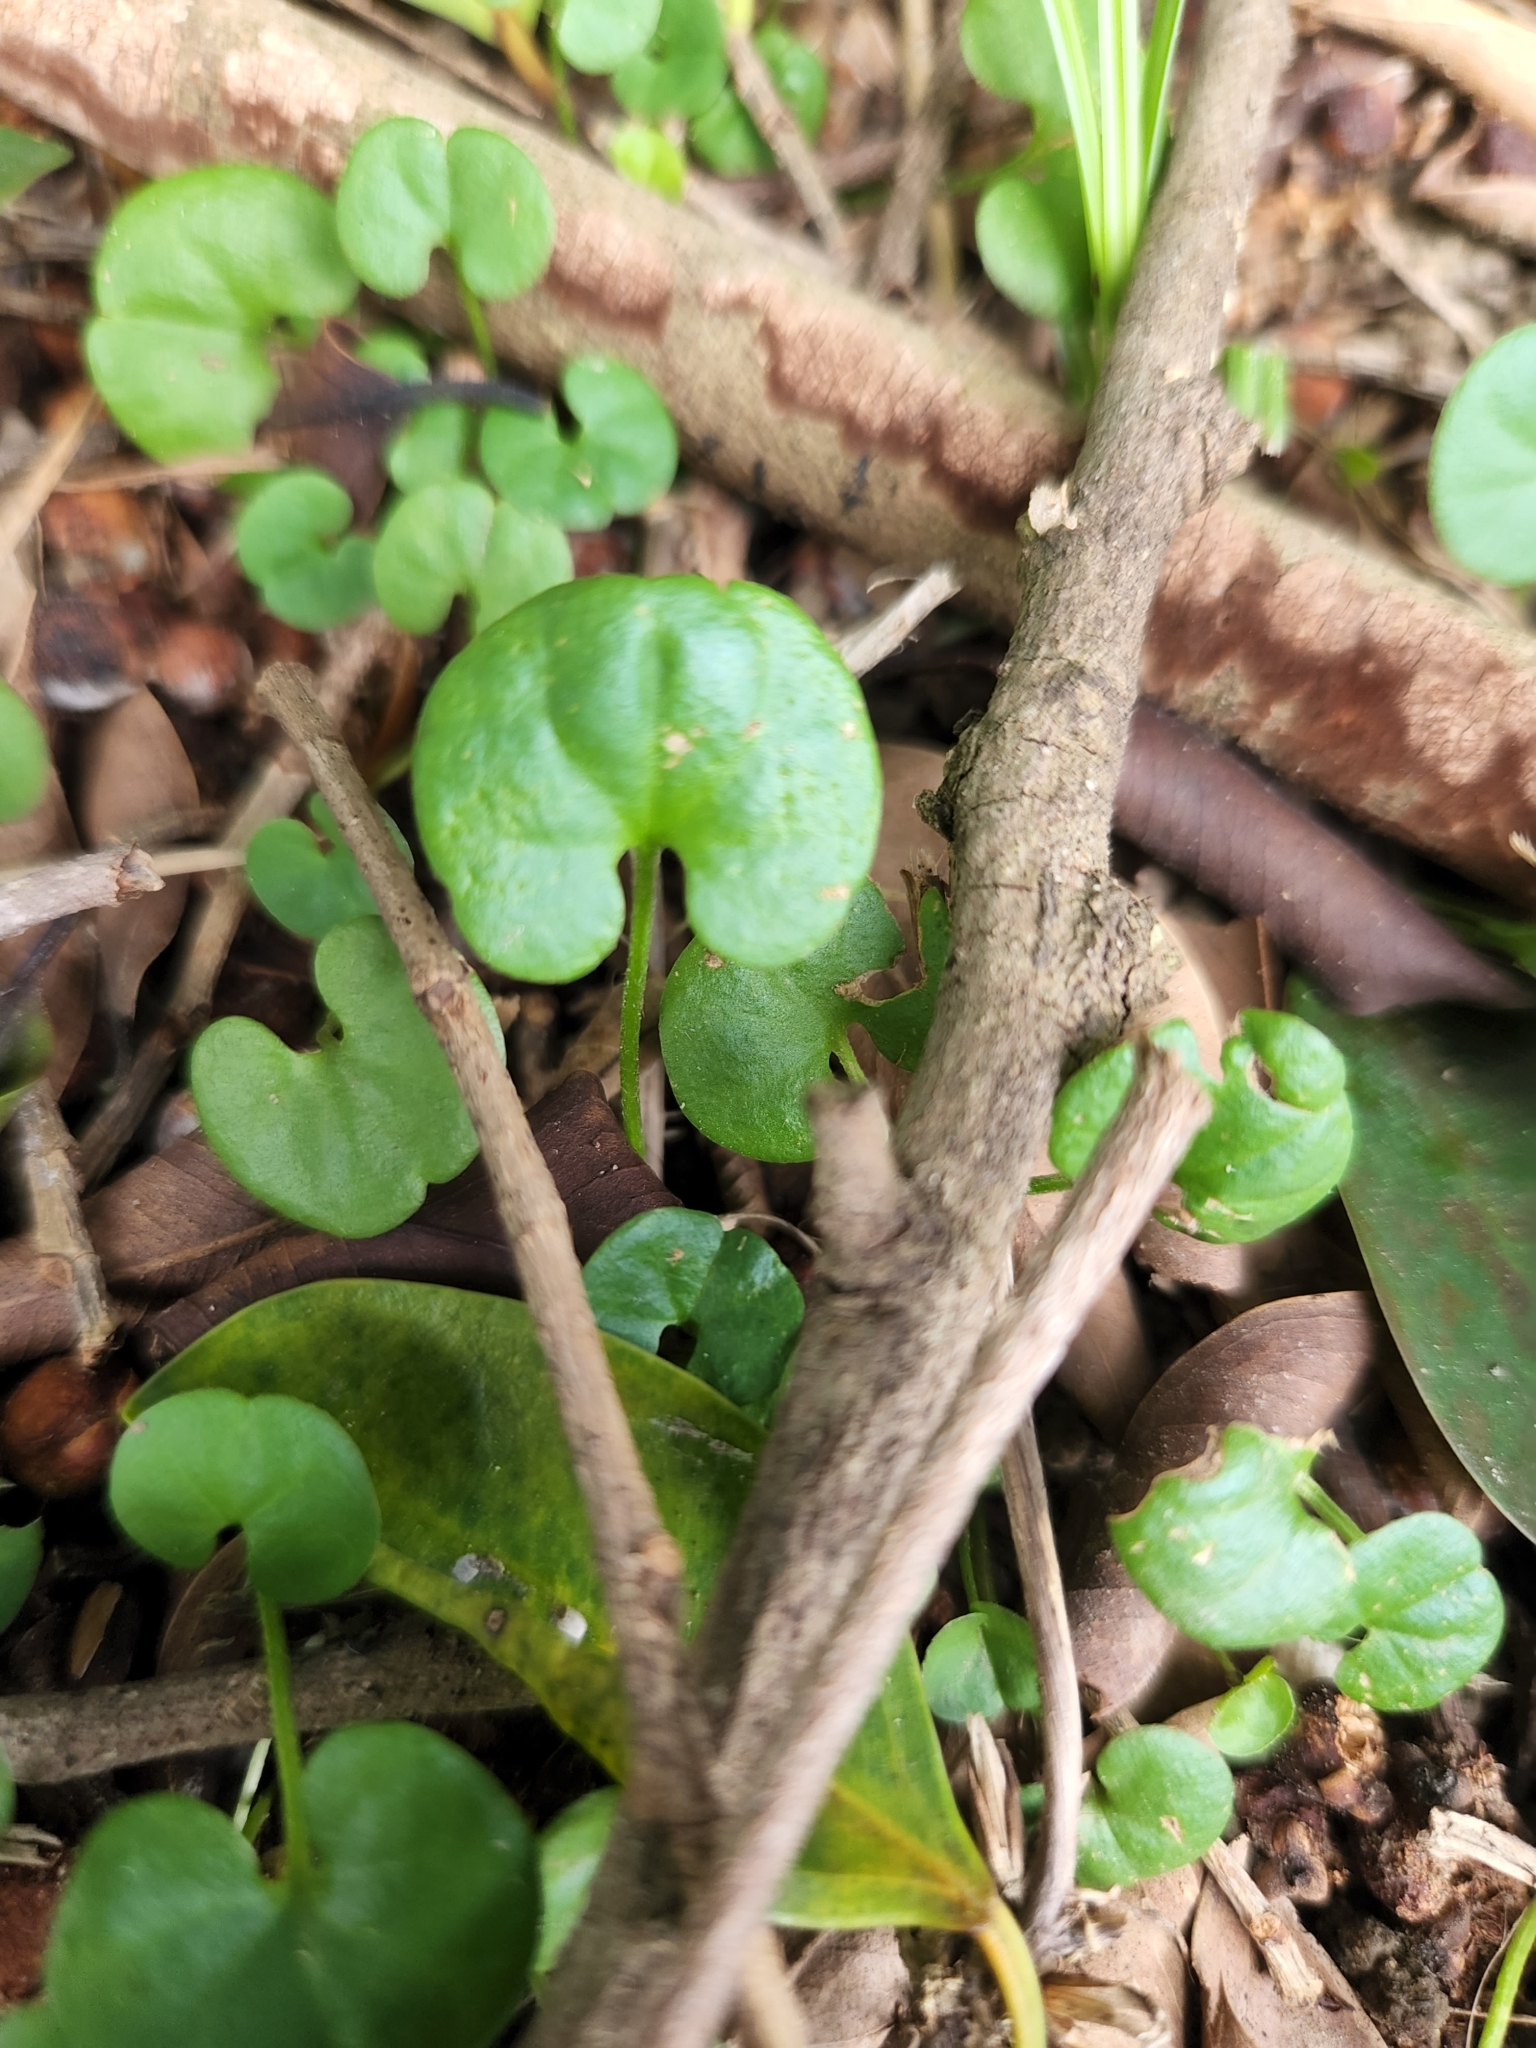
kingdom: Plantae
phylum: Tracheophyta
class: Magnoliopsida
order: Solanales
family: Convolvulaceae
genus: Dichondra
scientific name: Dichondra micrantha
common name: Kidneyweed
